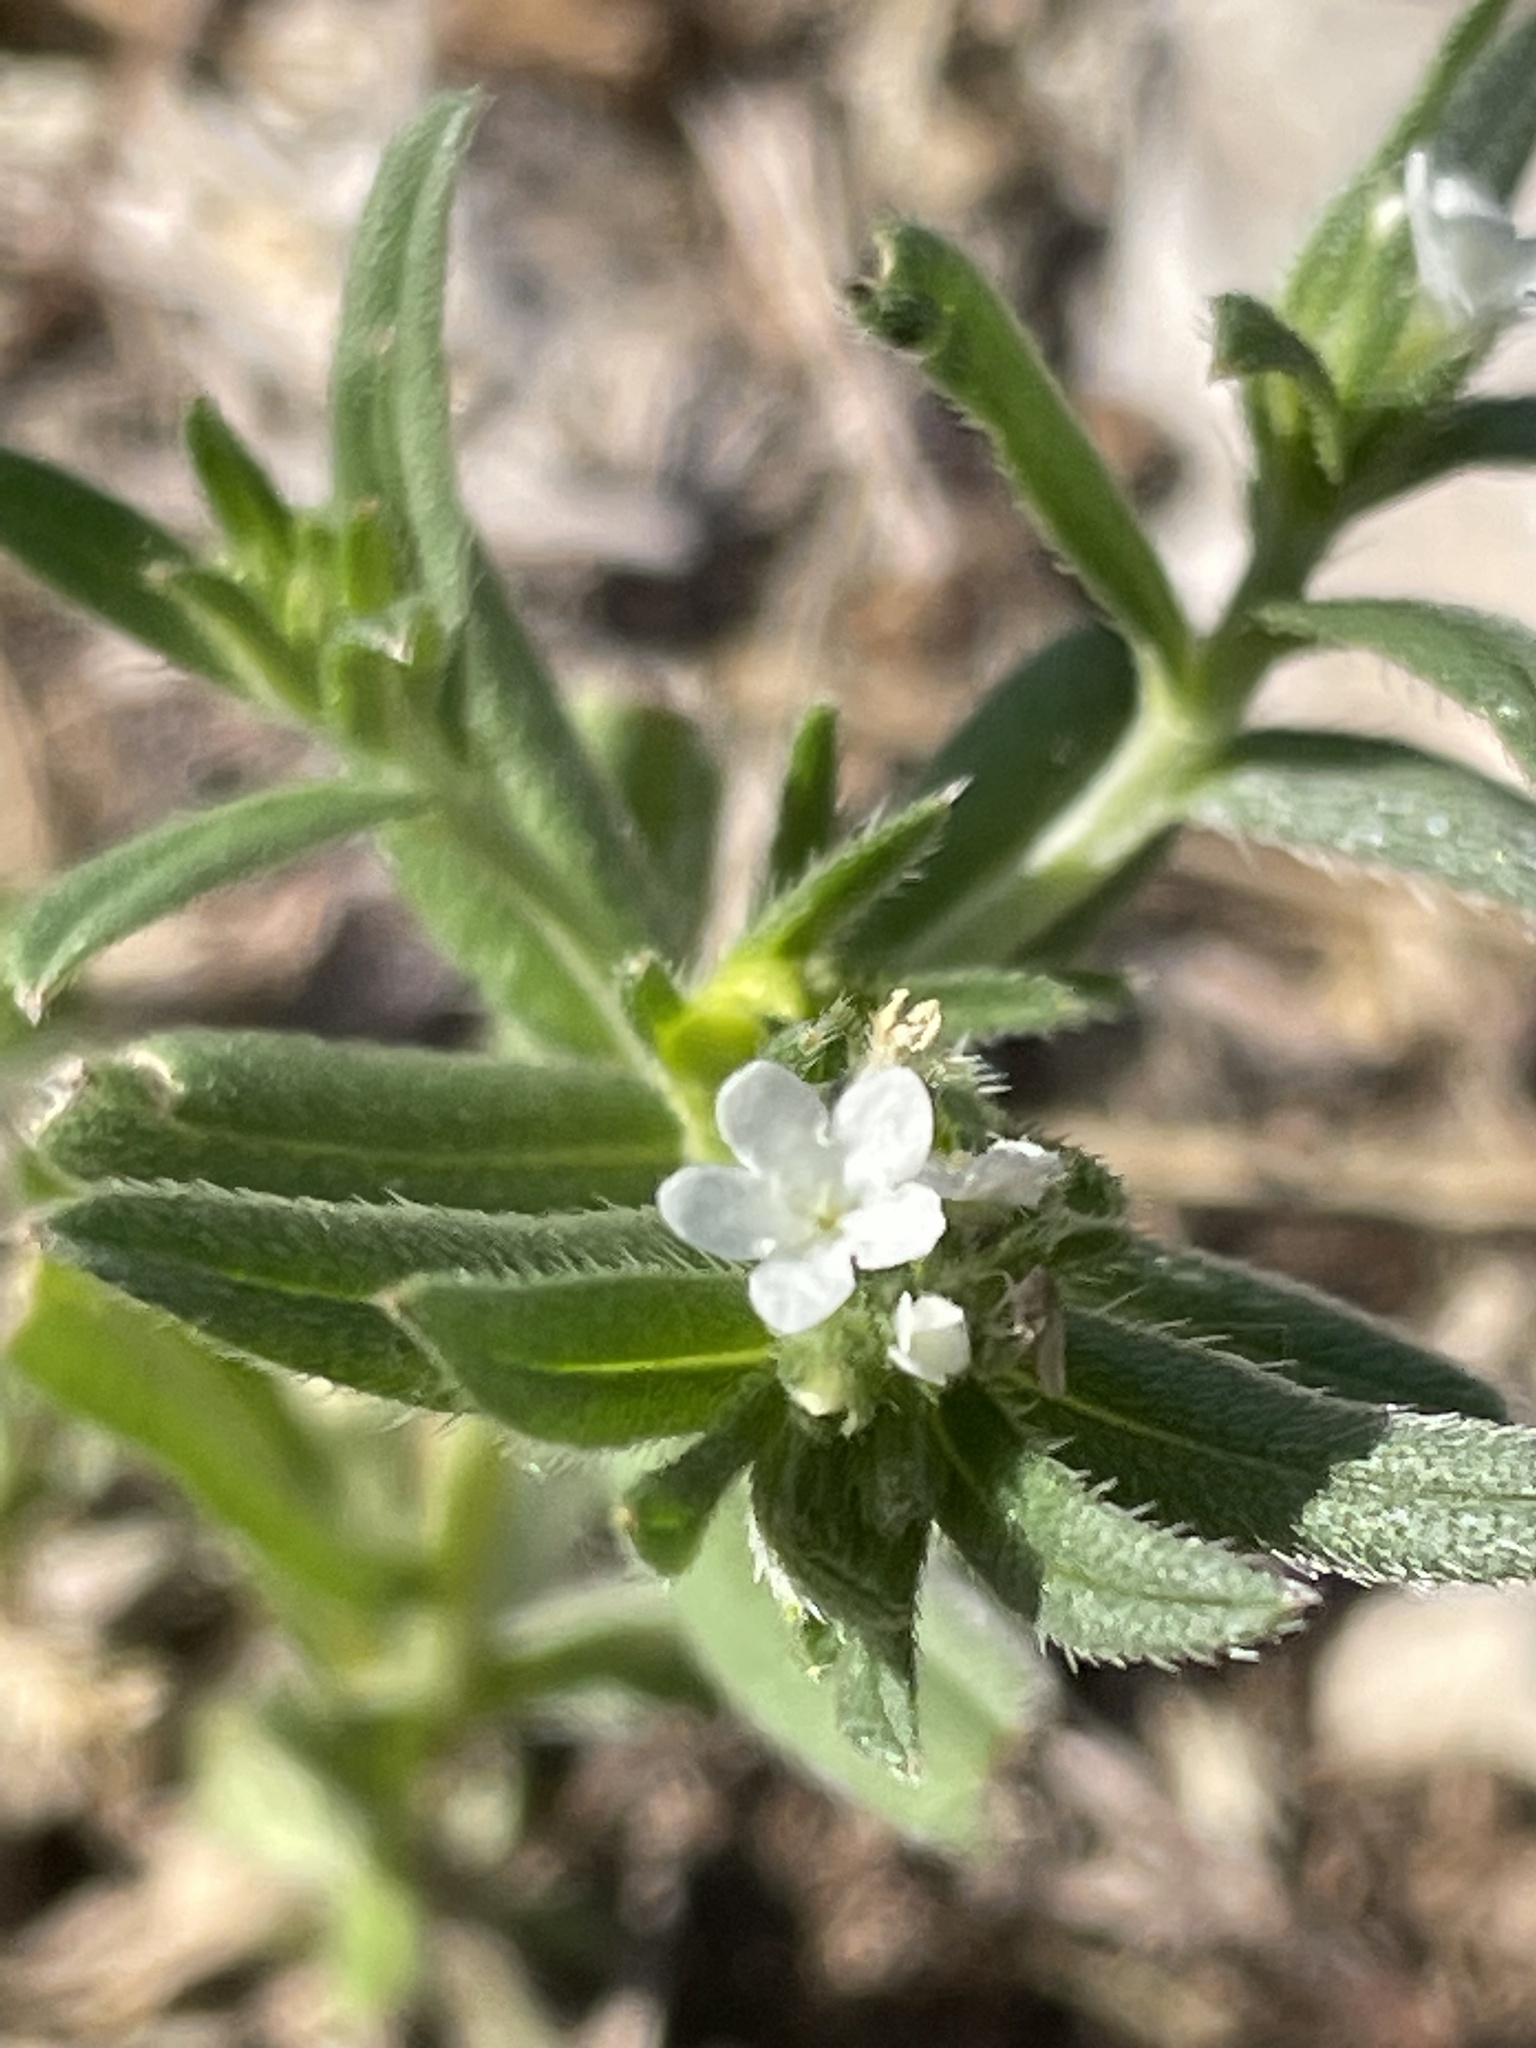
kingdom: Plantae
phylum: Tracheophyta
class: Magnoliopsida
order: Boraginales
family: Boraginaceae
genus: Buglossoides
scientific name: Buglossoides arvensis
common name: Corn gromwell
